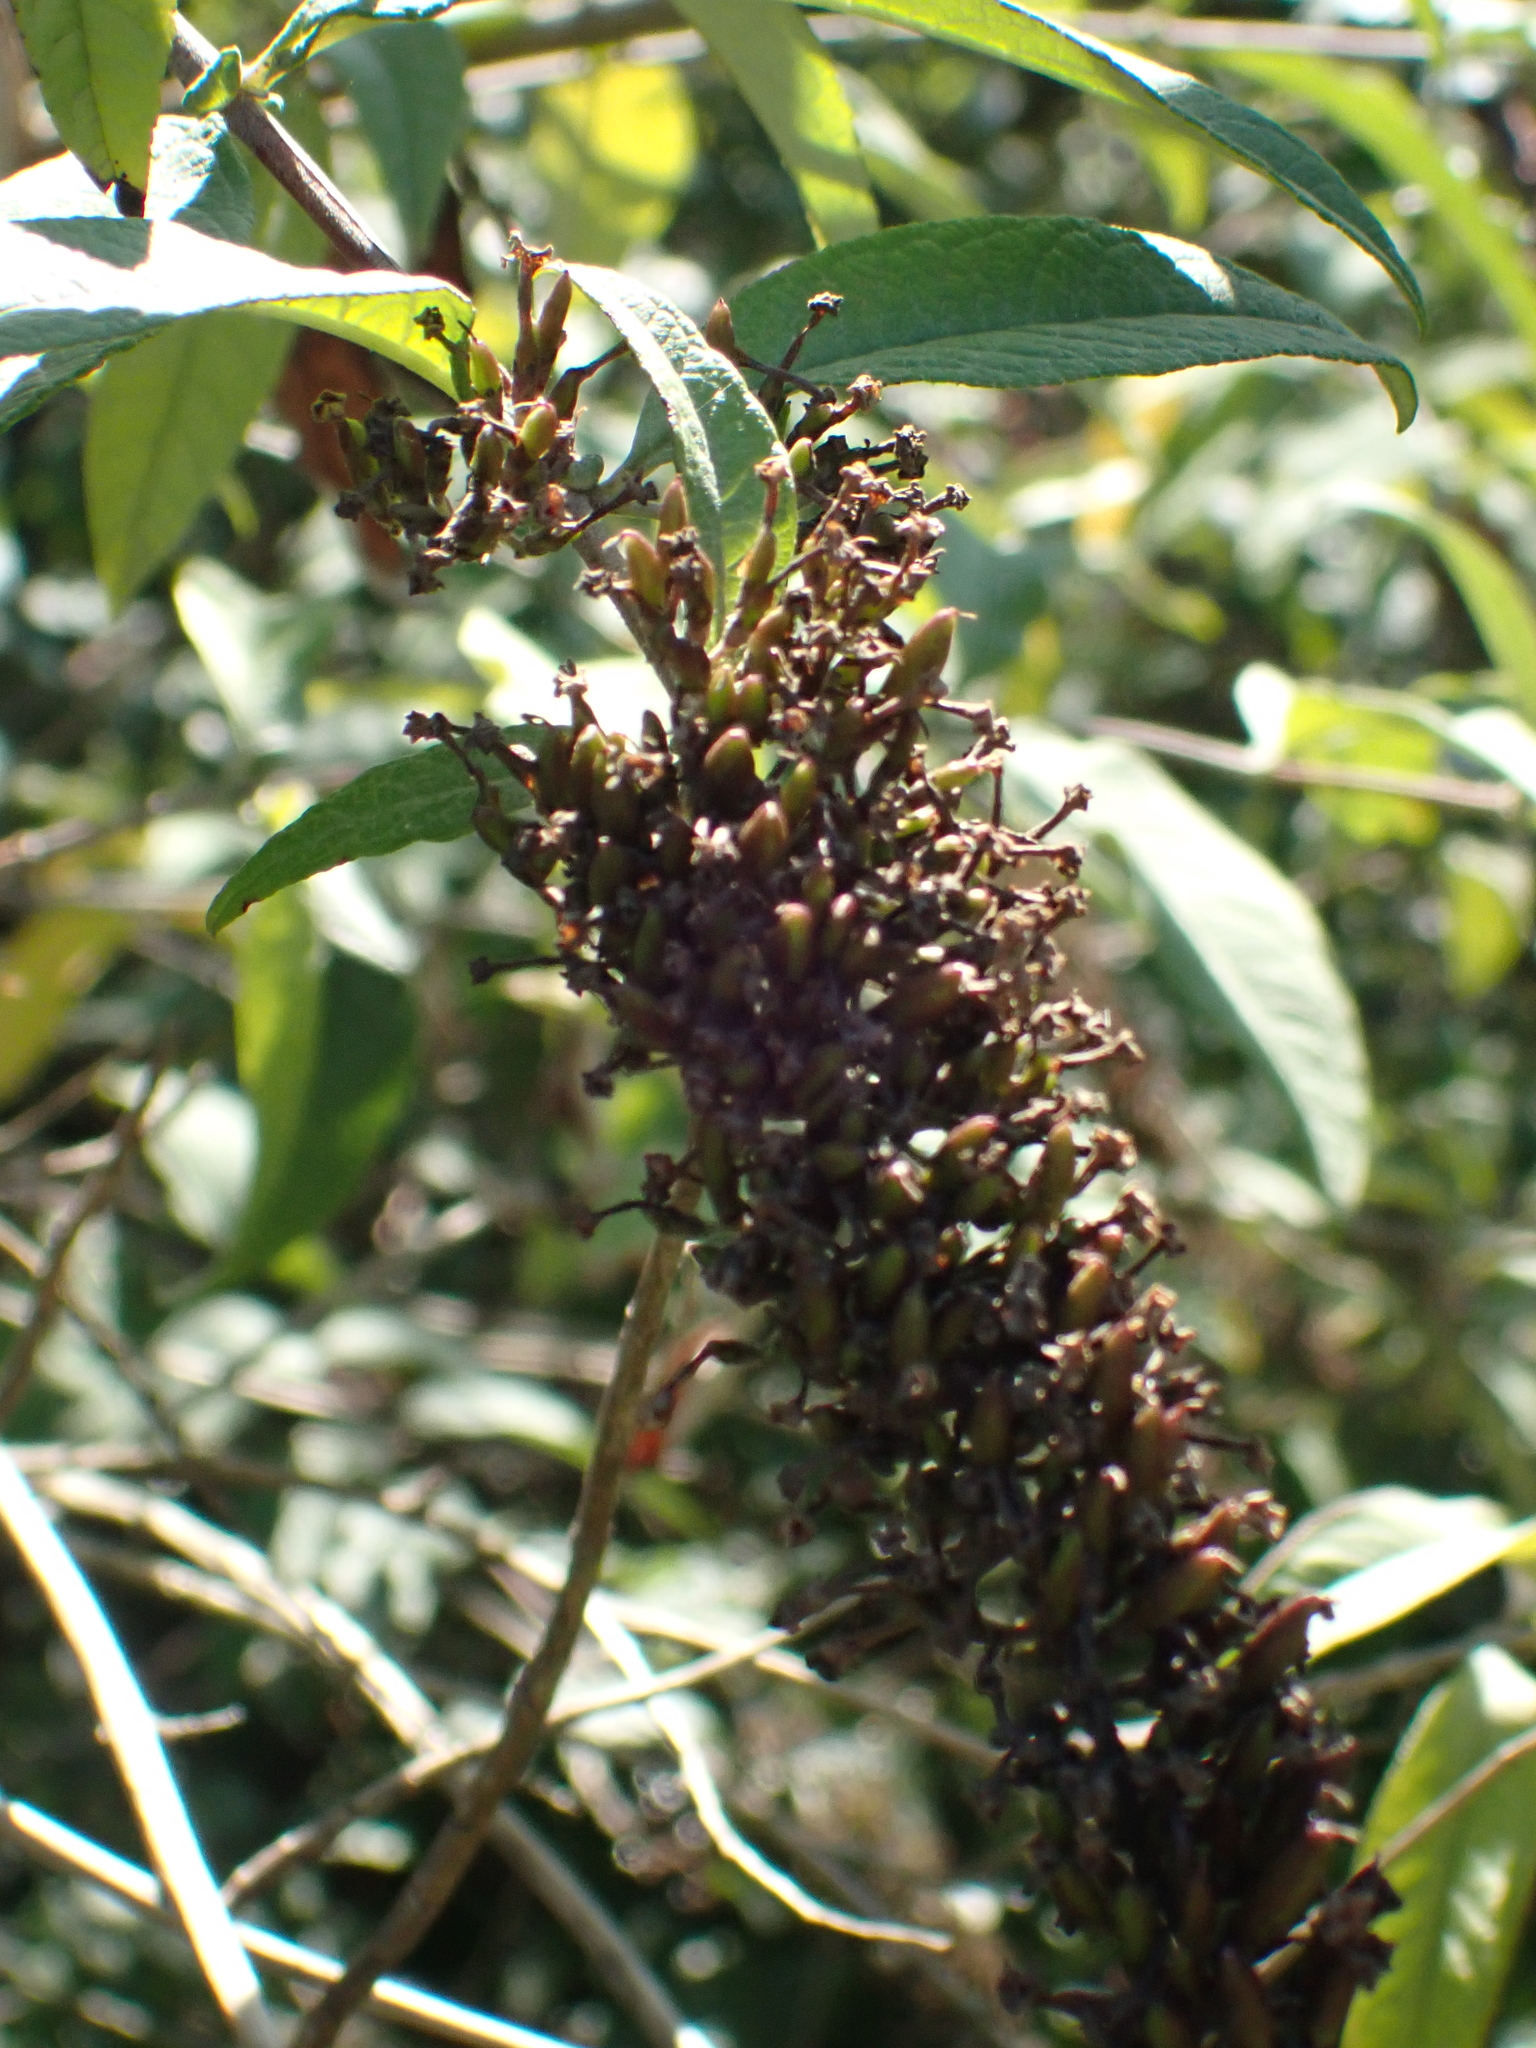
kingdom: Plantae
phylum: Tracheophyta
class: Magnoliopsida
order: Lamiales
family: Scrophulariaceae
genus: Buddleja
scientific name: Buddleja davidii
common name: Butterfly-bush
